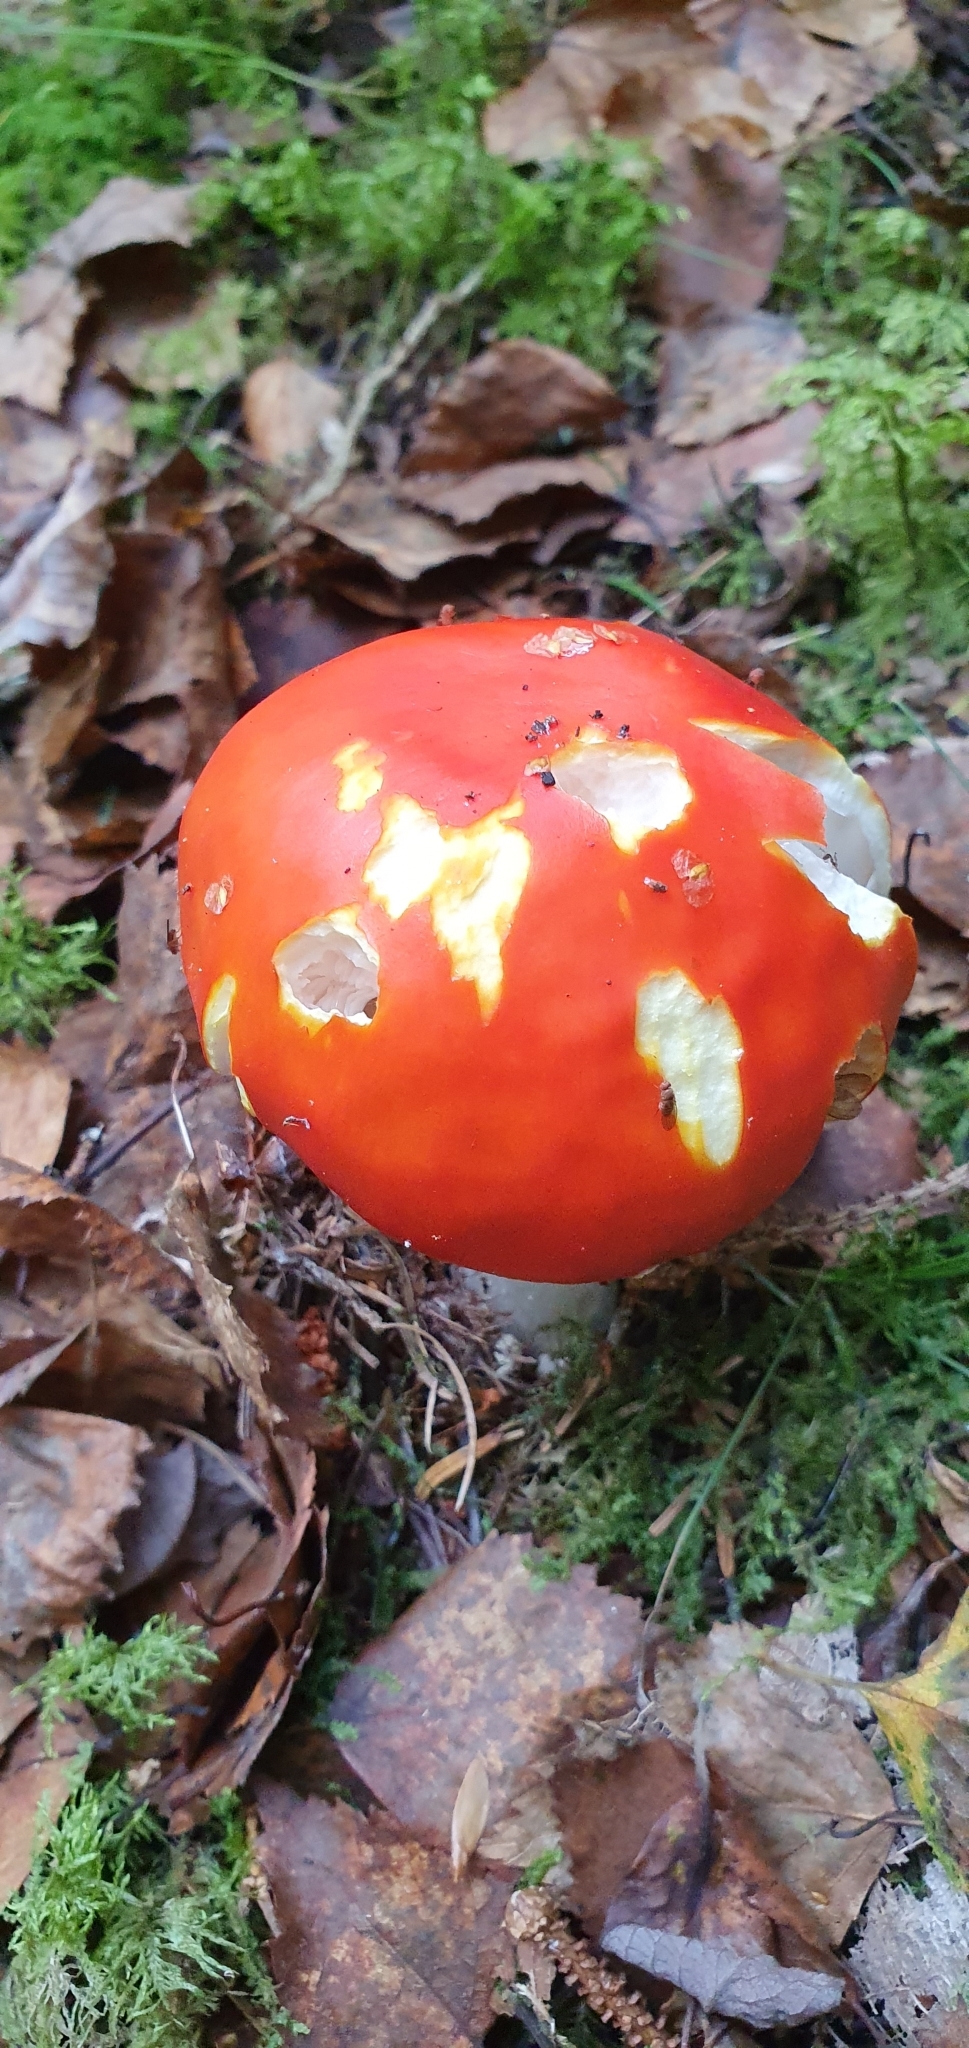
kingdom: Fungi
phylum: Basidiomycota
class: Agaricomycetes
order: Agaricales
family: Amanitaceae
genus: Amanita
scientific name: Amanita muscaria
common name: Fly agaric
